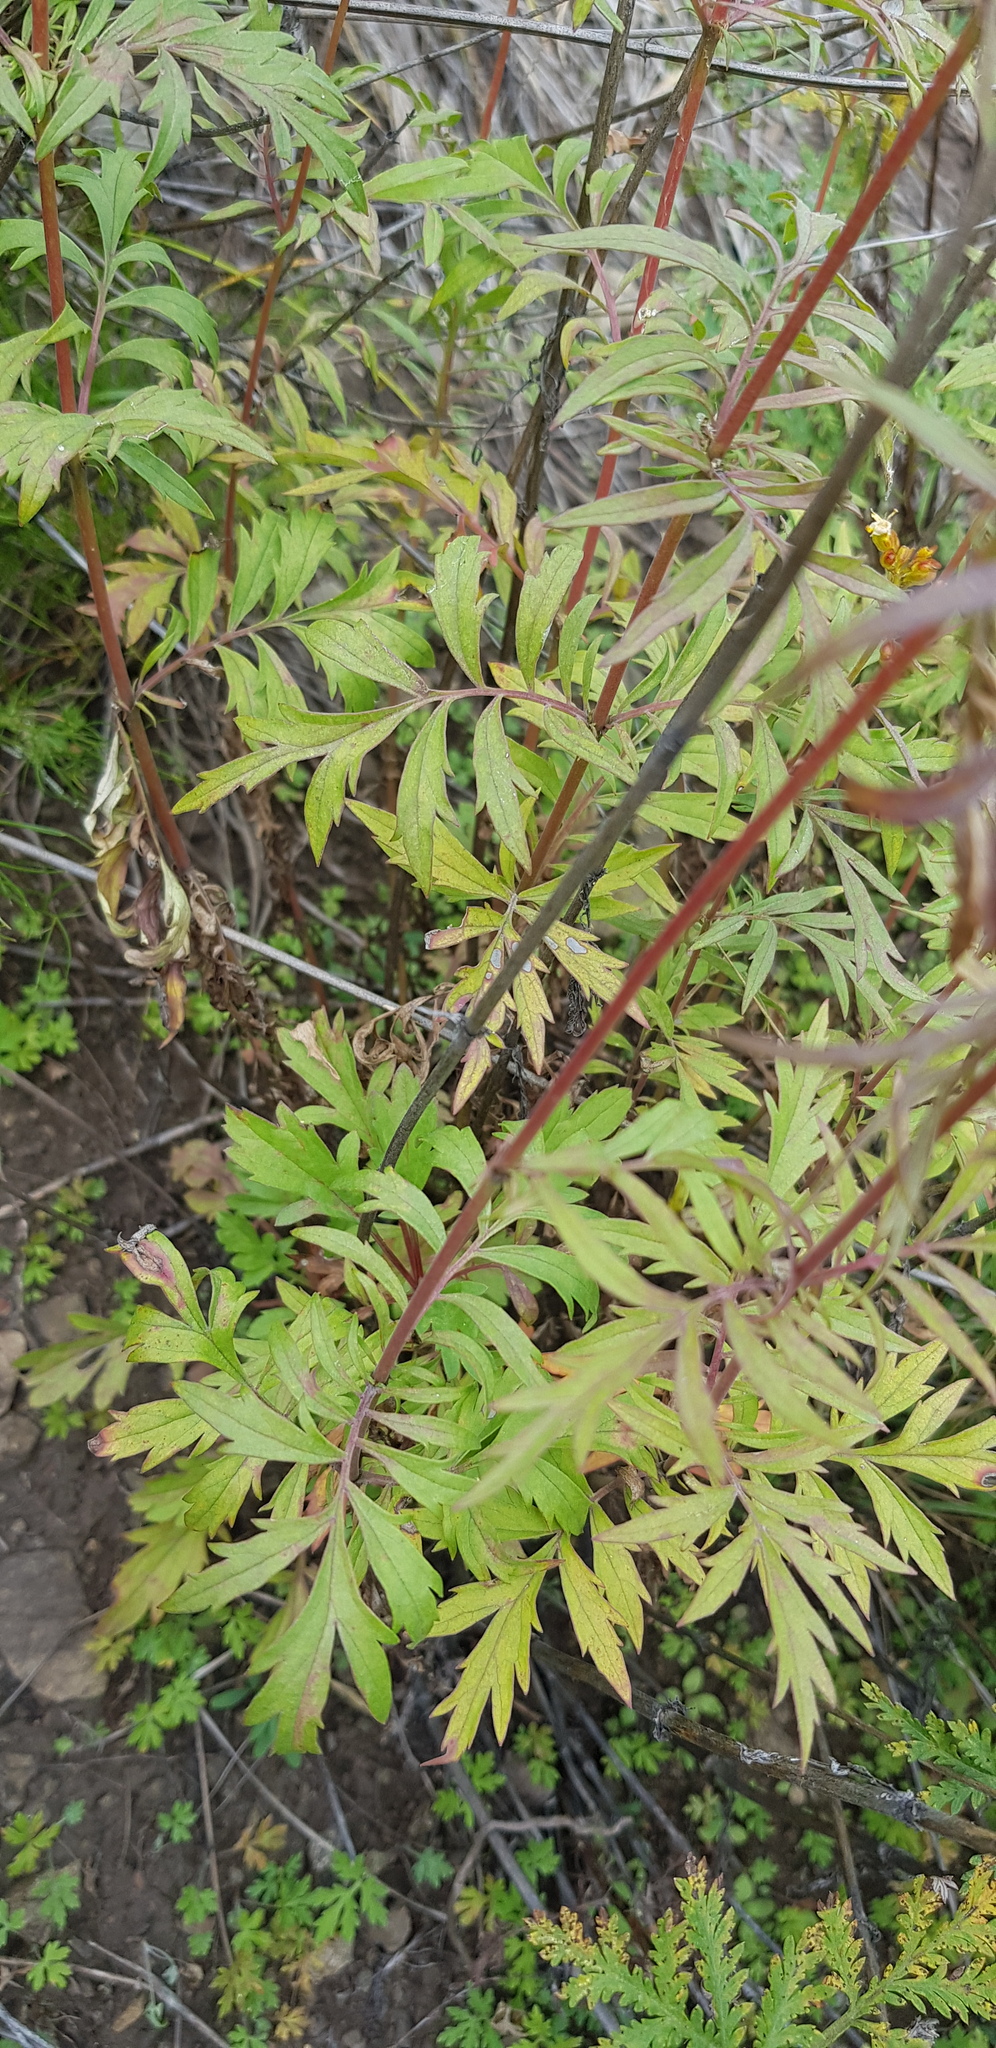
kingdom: Plantae
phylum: Tracheophyta
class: Magnoliopsida
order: Dipsacales
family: Caprifoliaceae
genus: Patrinia
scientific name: Patrinia rupestris
